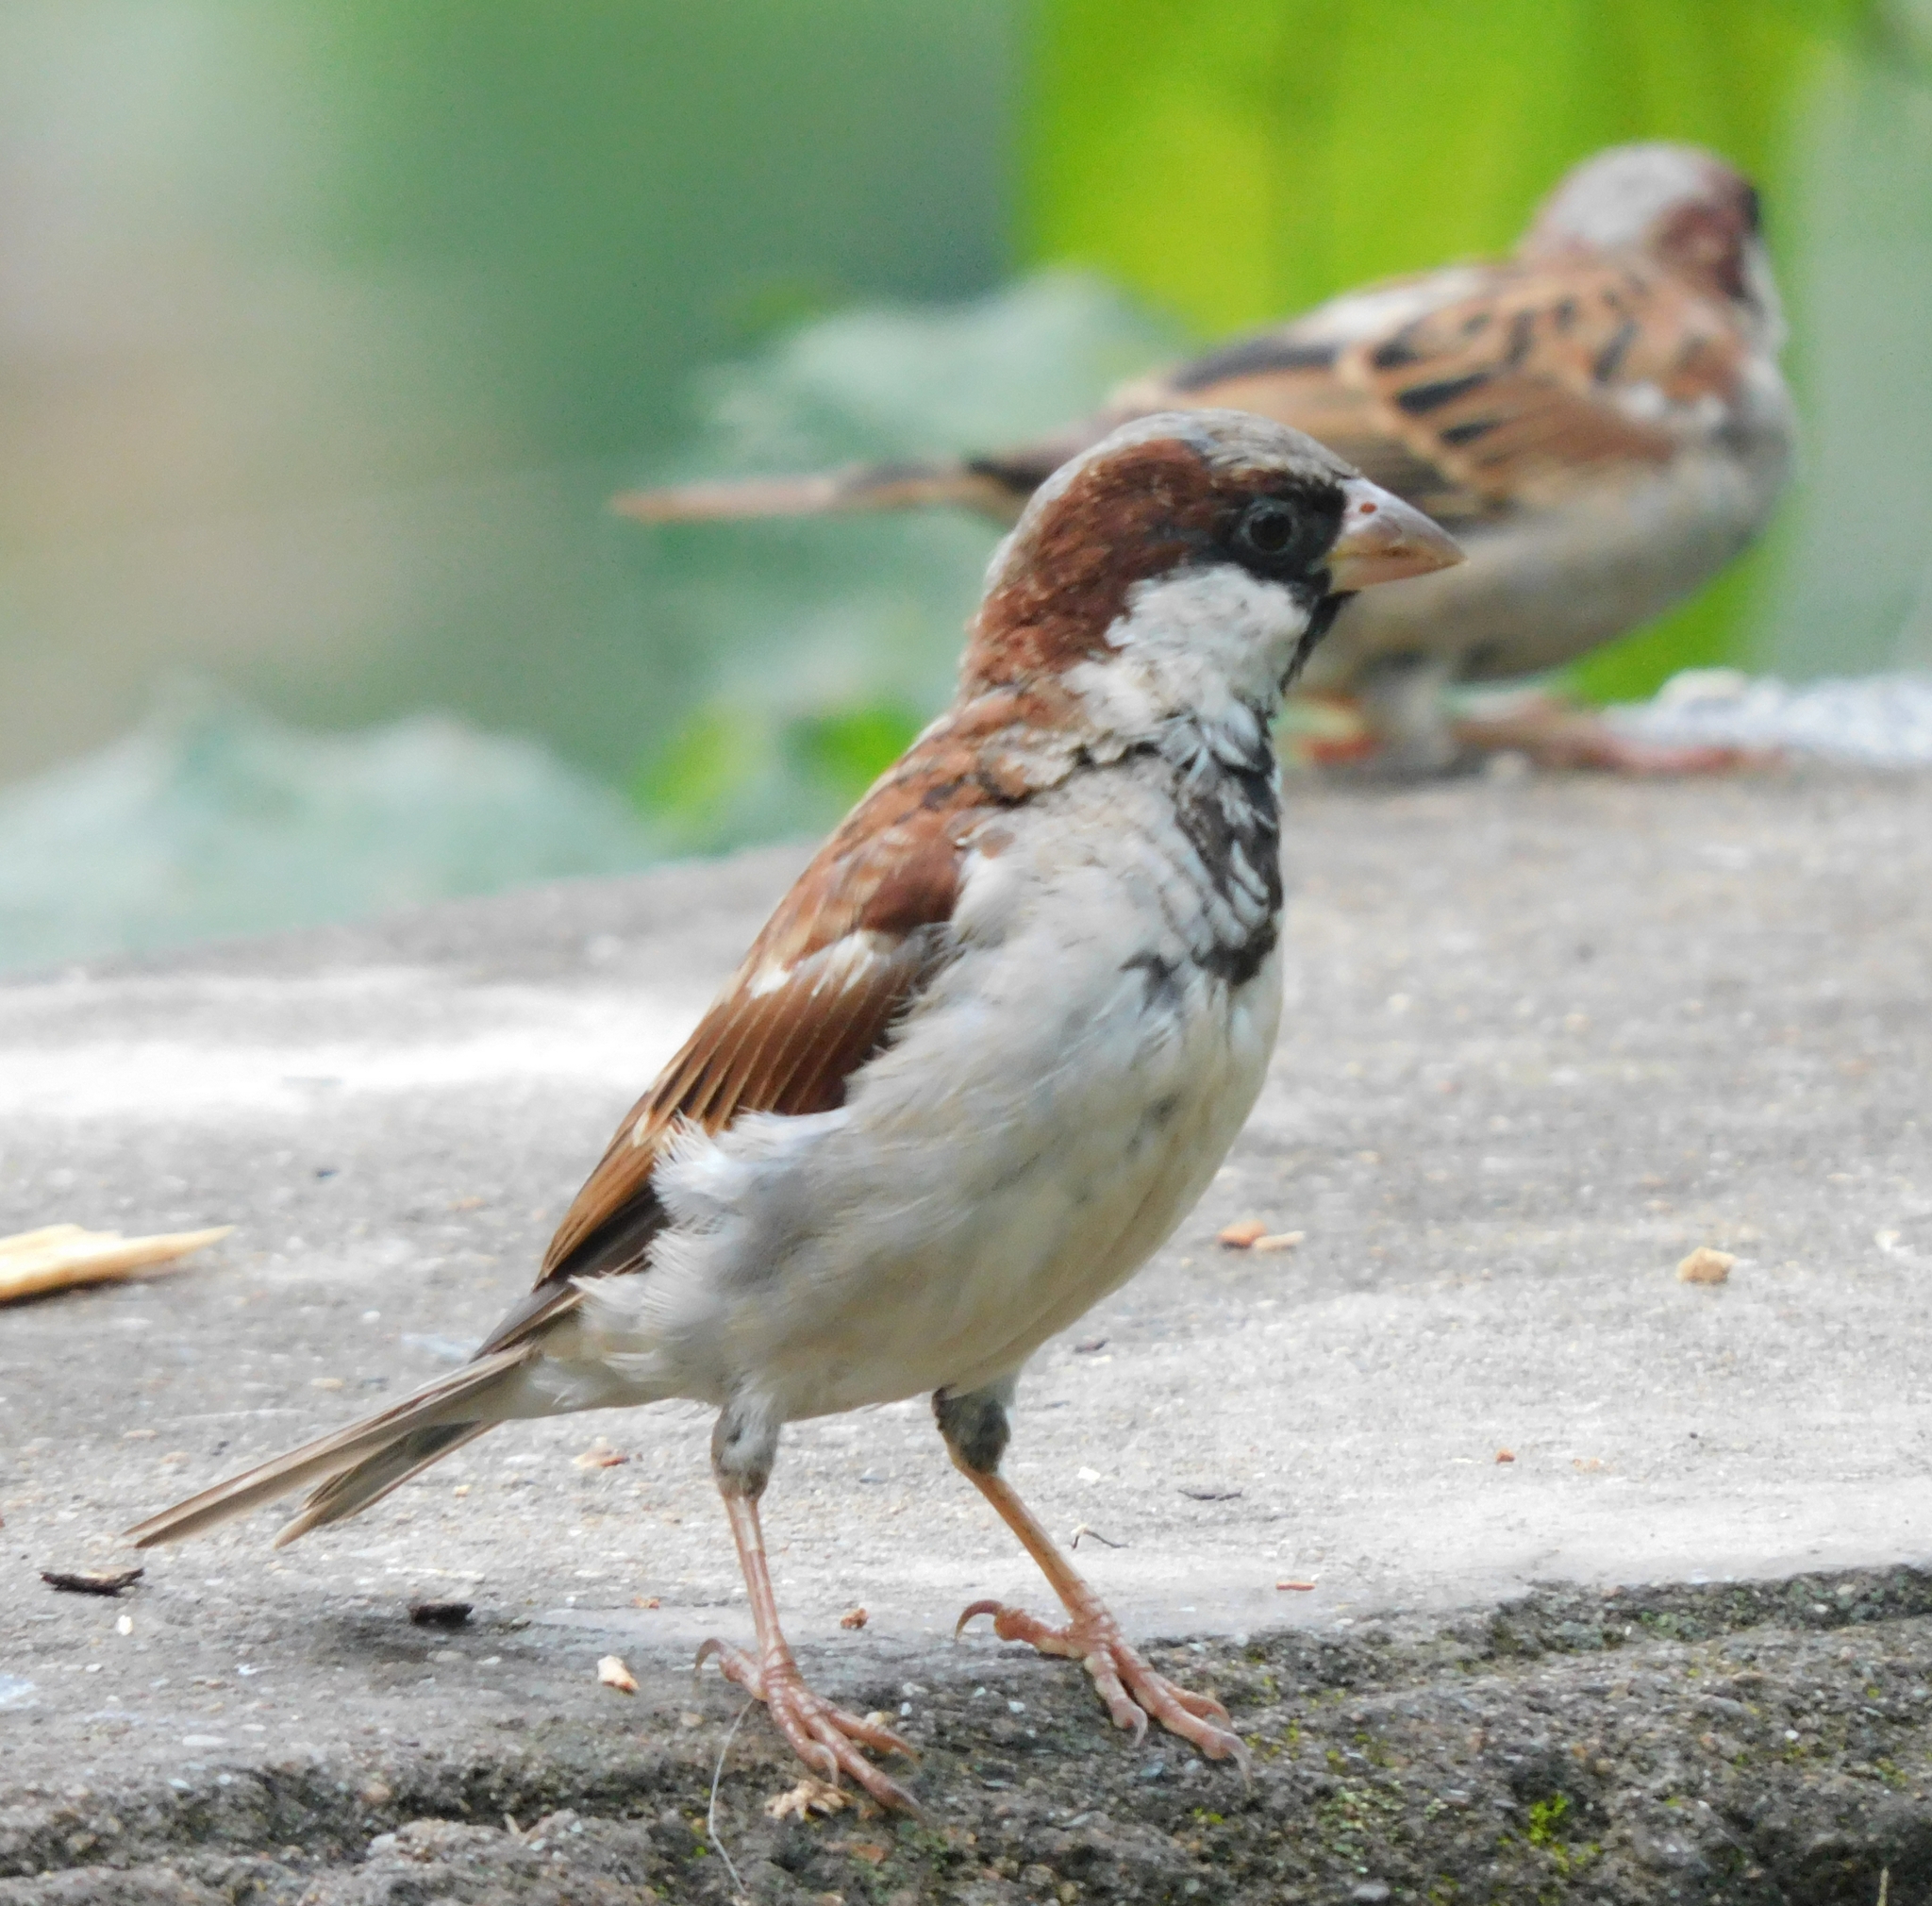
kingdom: Animalia
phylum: Chordata
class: Aves
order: Passeriformes
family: Passeridae
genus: Passer
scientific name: Passer domesticus
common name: House sparrow
